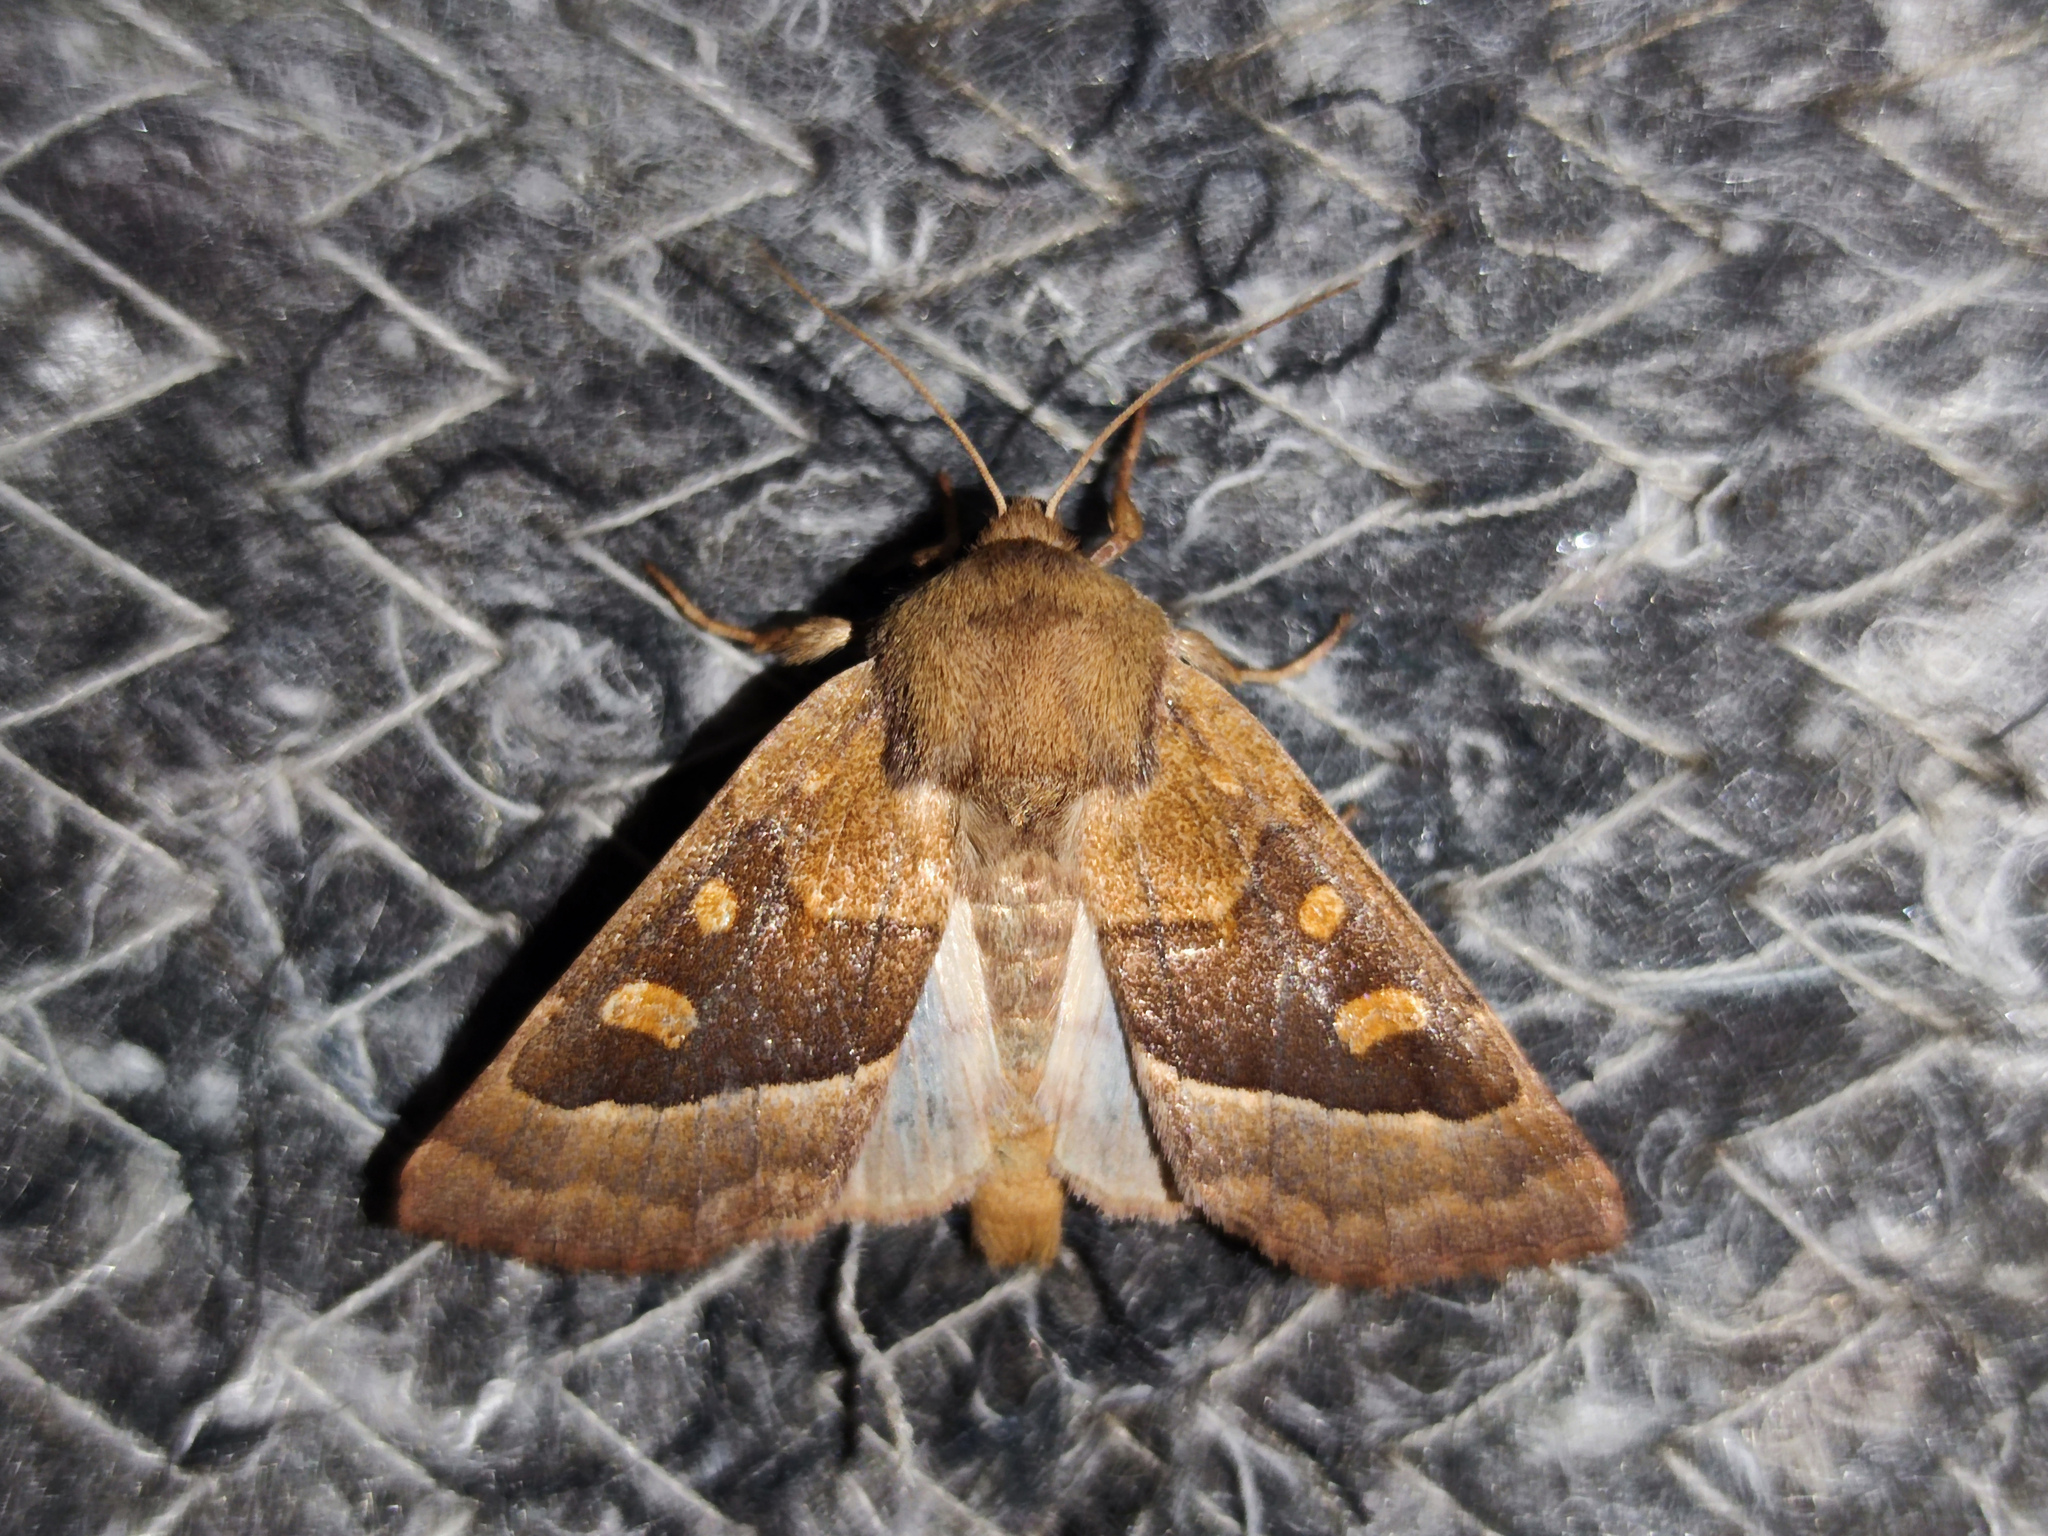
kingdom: Animalia
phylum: Arthropoda
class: Insecta
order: Lepidoptera
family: Noctuidae
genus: Cervyna
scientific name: Cervyna cervago
